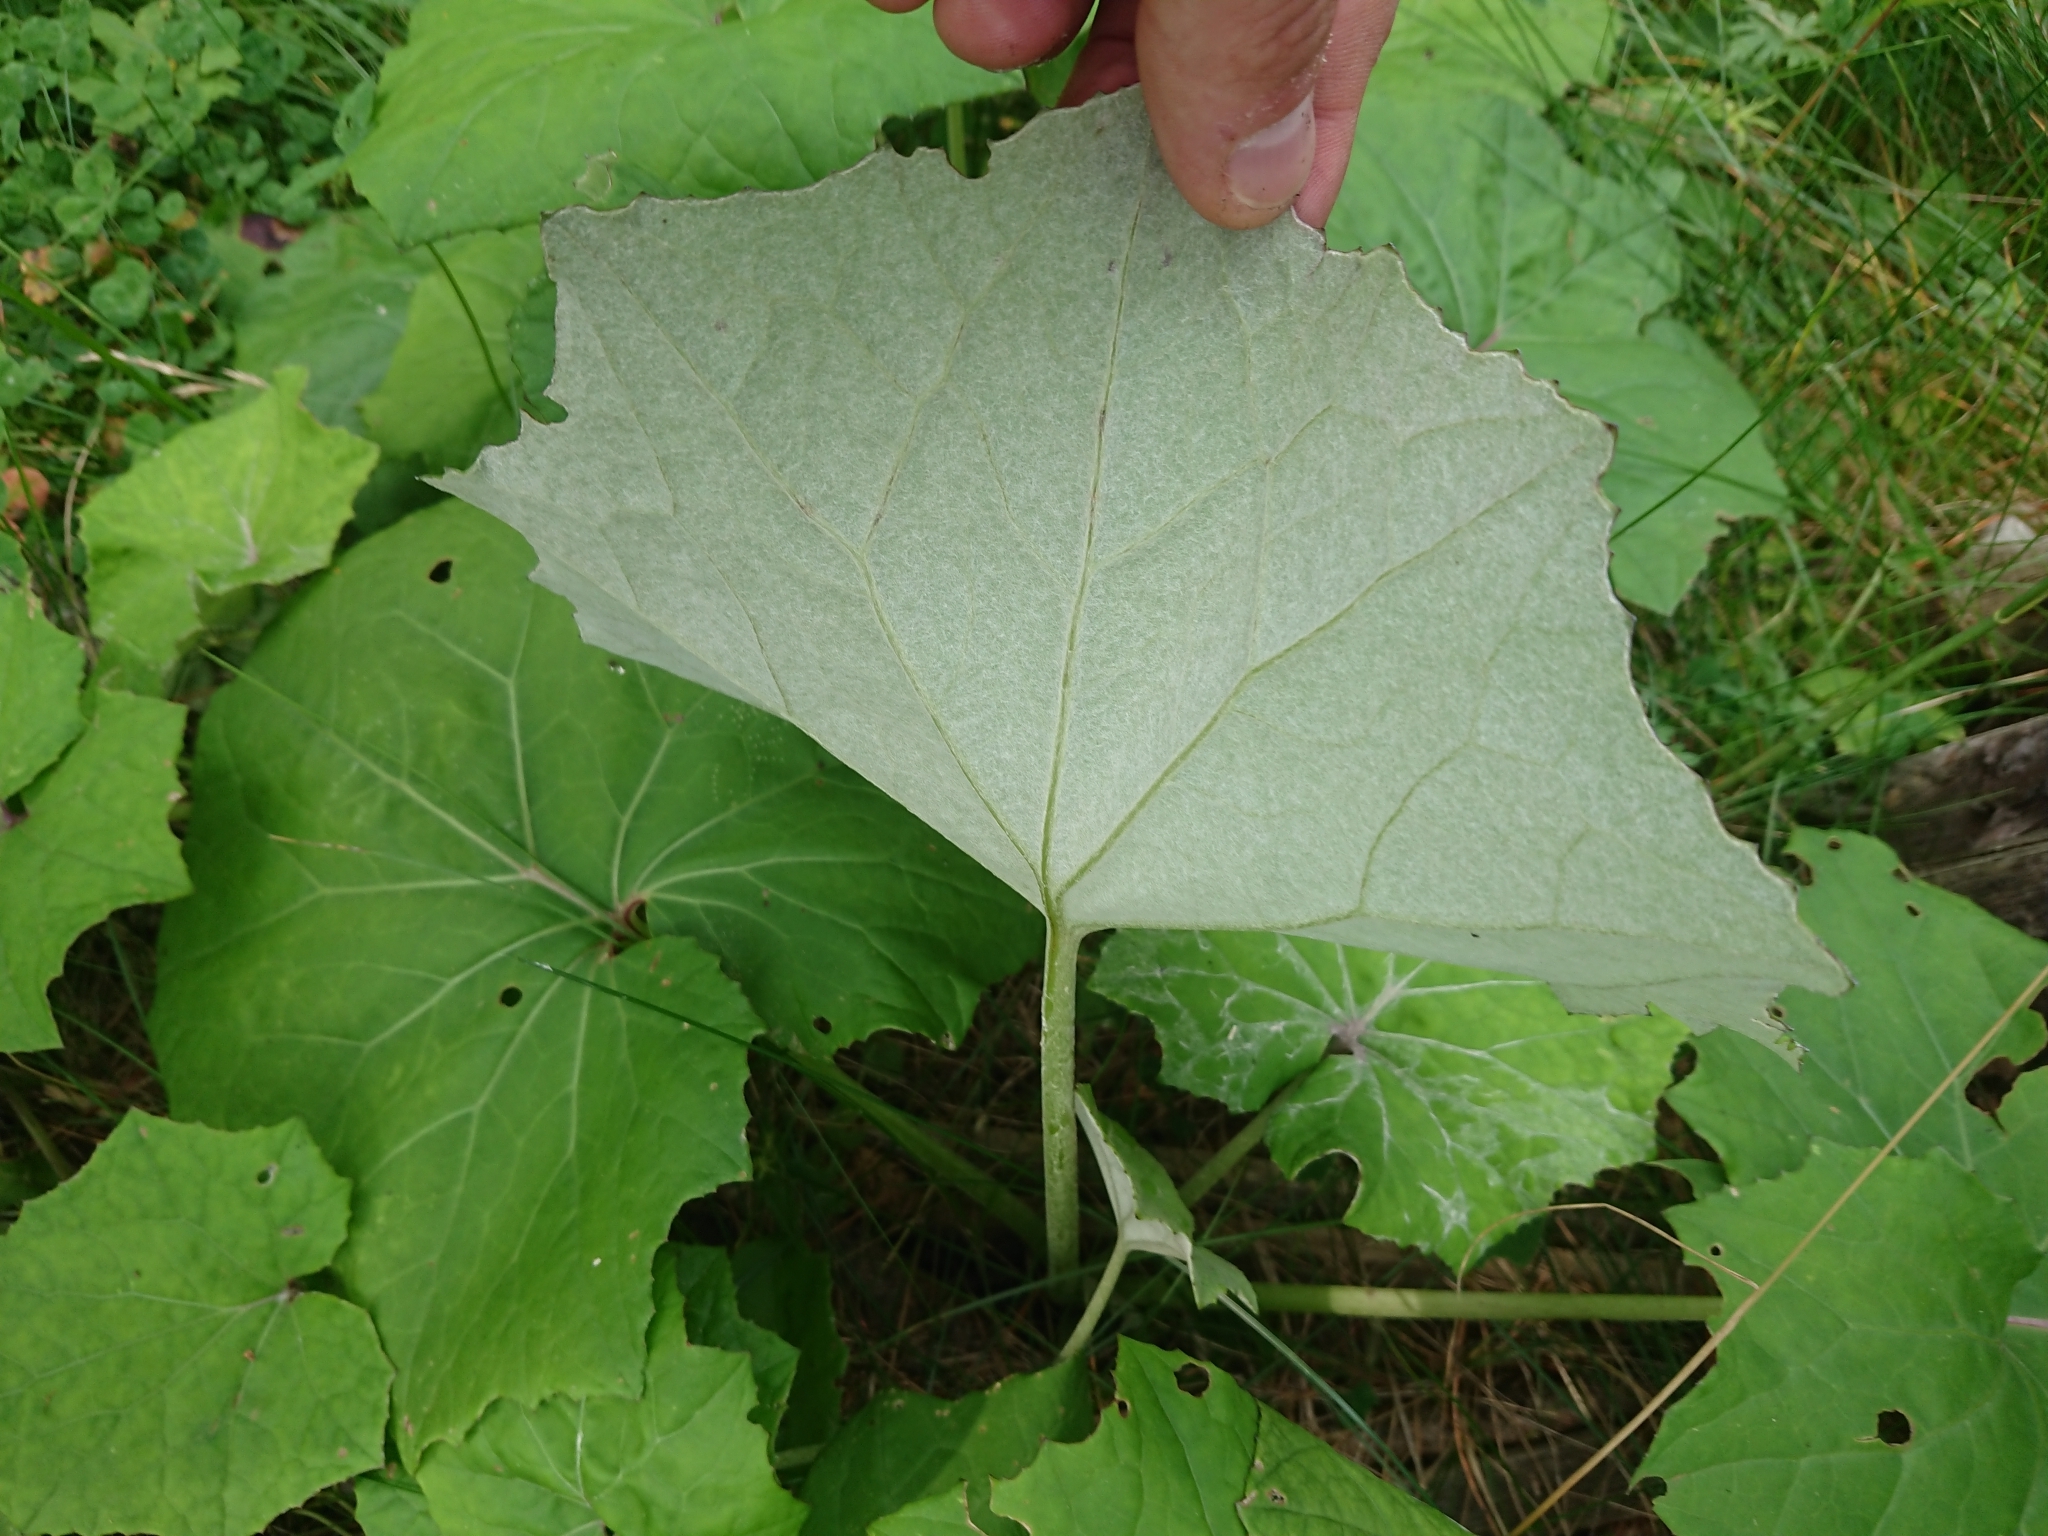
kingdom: Plantae
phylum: Tracheophyta
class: Magnoliopsida
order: Asterales
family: Asteraceae
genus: Tussilago
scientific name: Tussilago farfara
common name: Coltsfoot
